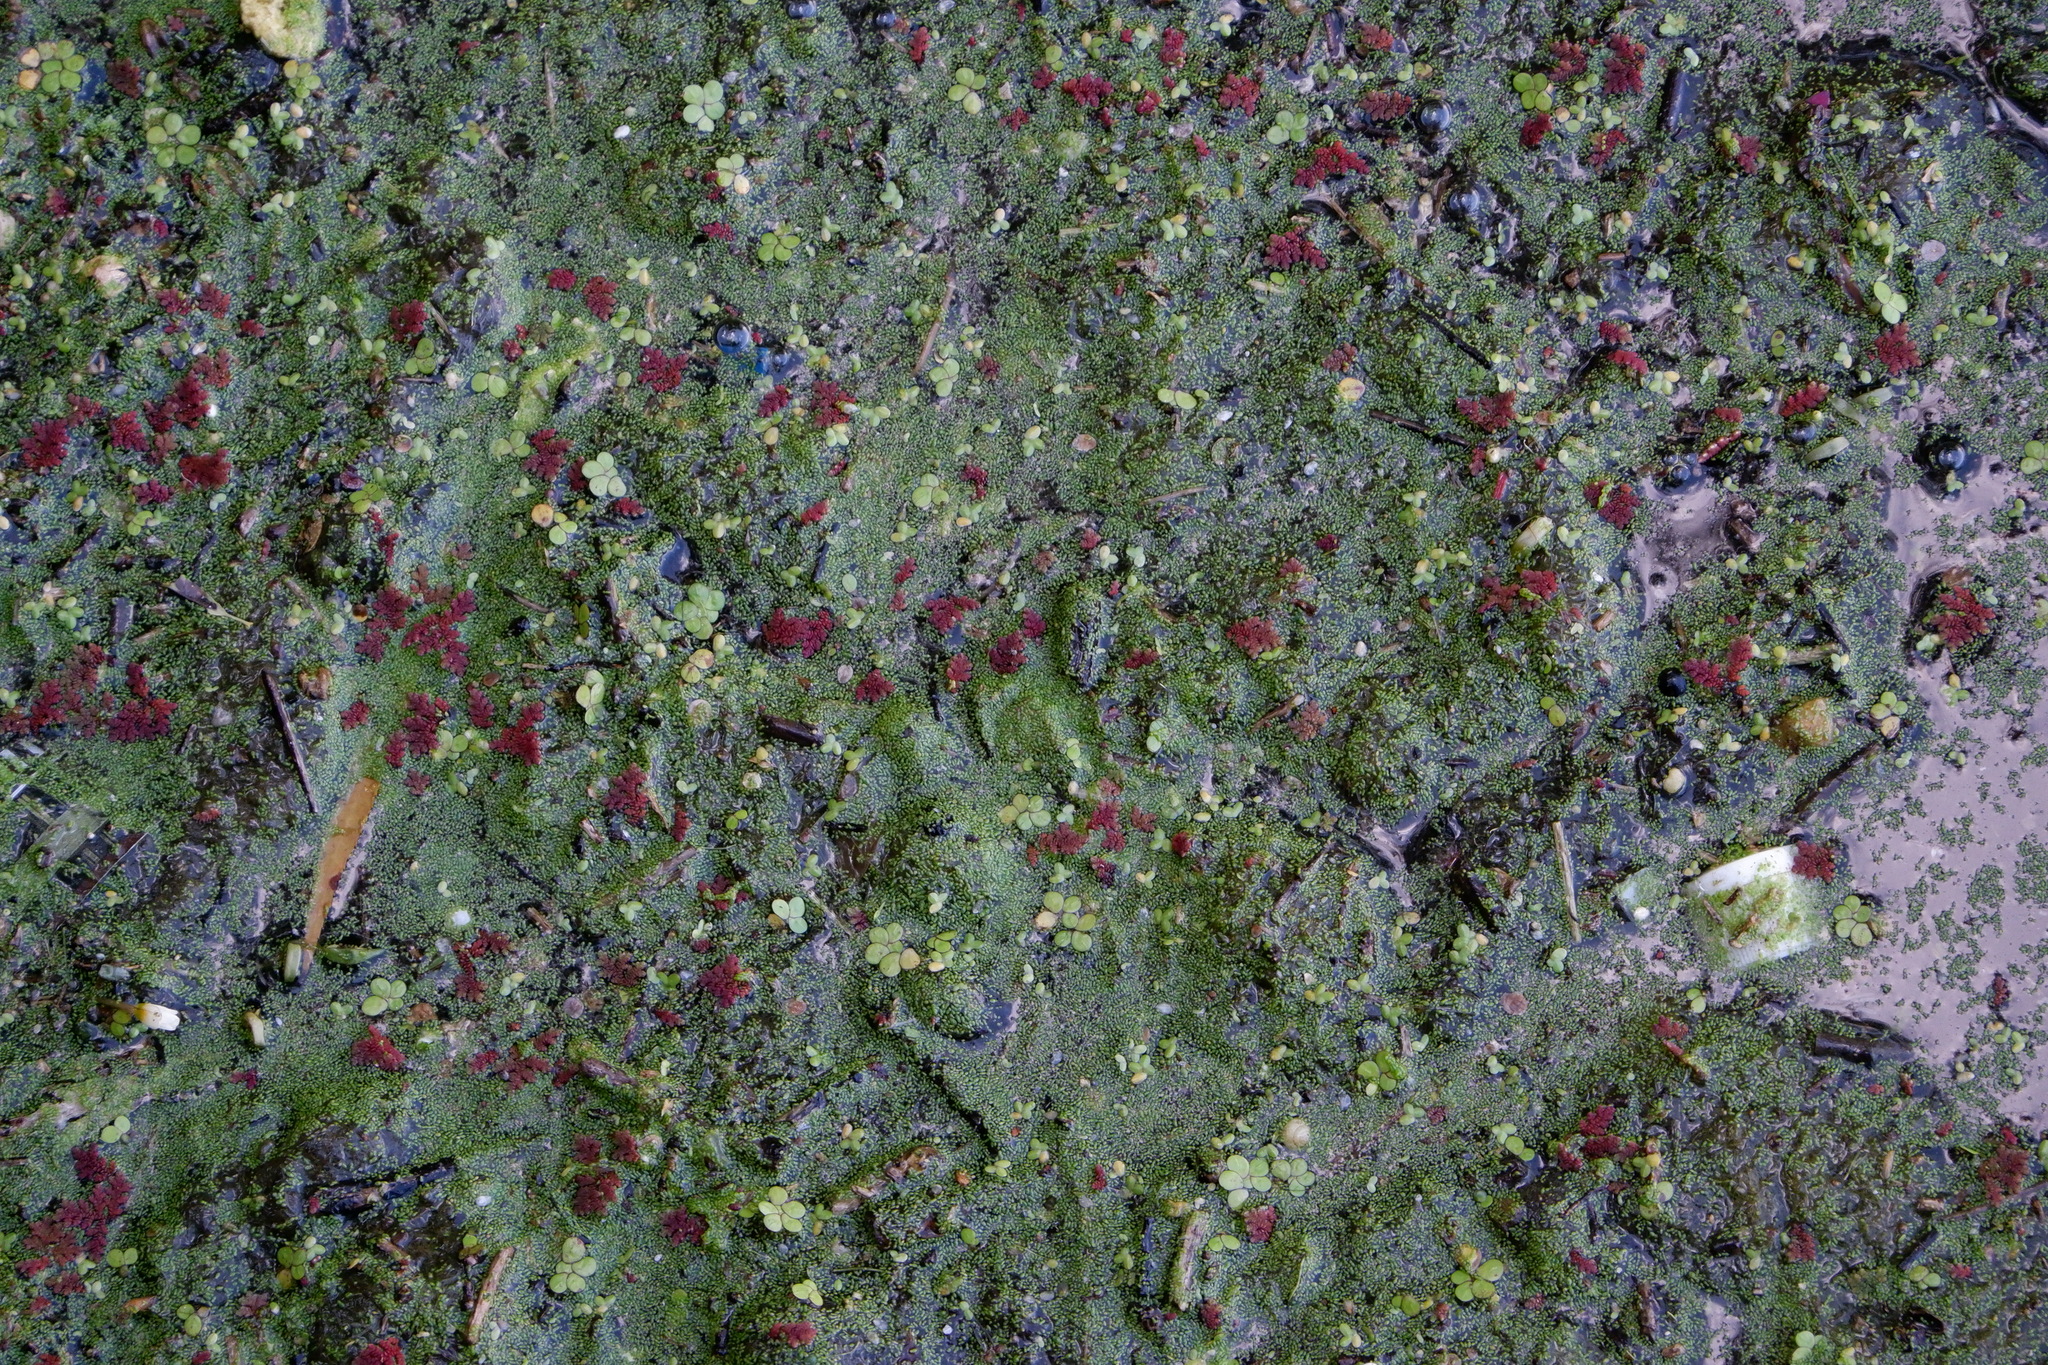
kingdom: Plantae
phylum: Tracheophyta
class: Liliopsida
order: Alismatales
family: Araceae
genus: Wolffia
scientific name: Wolffia
